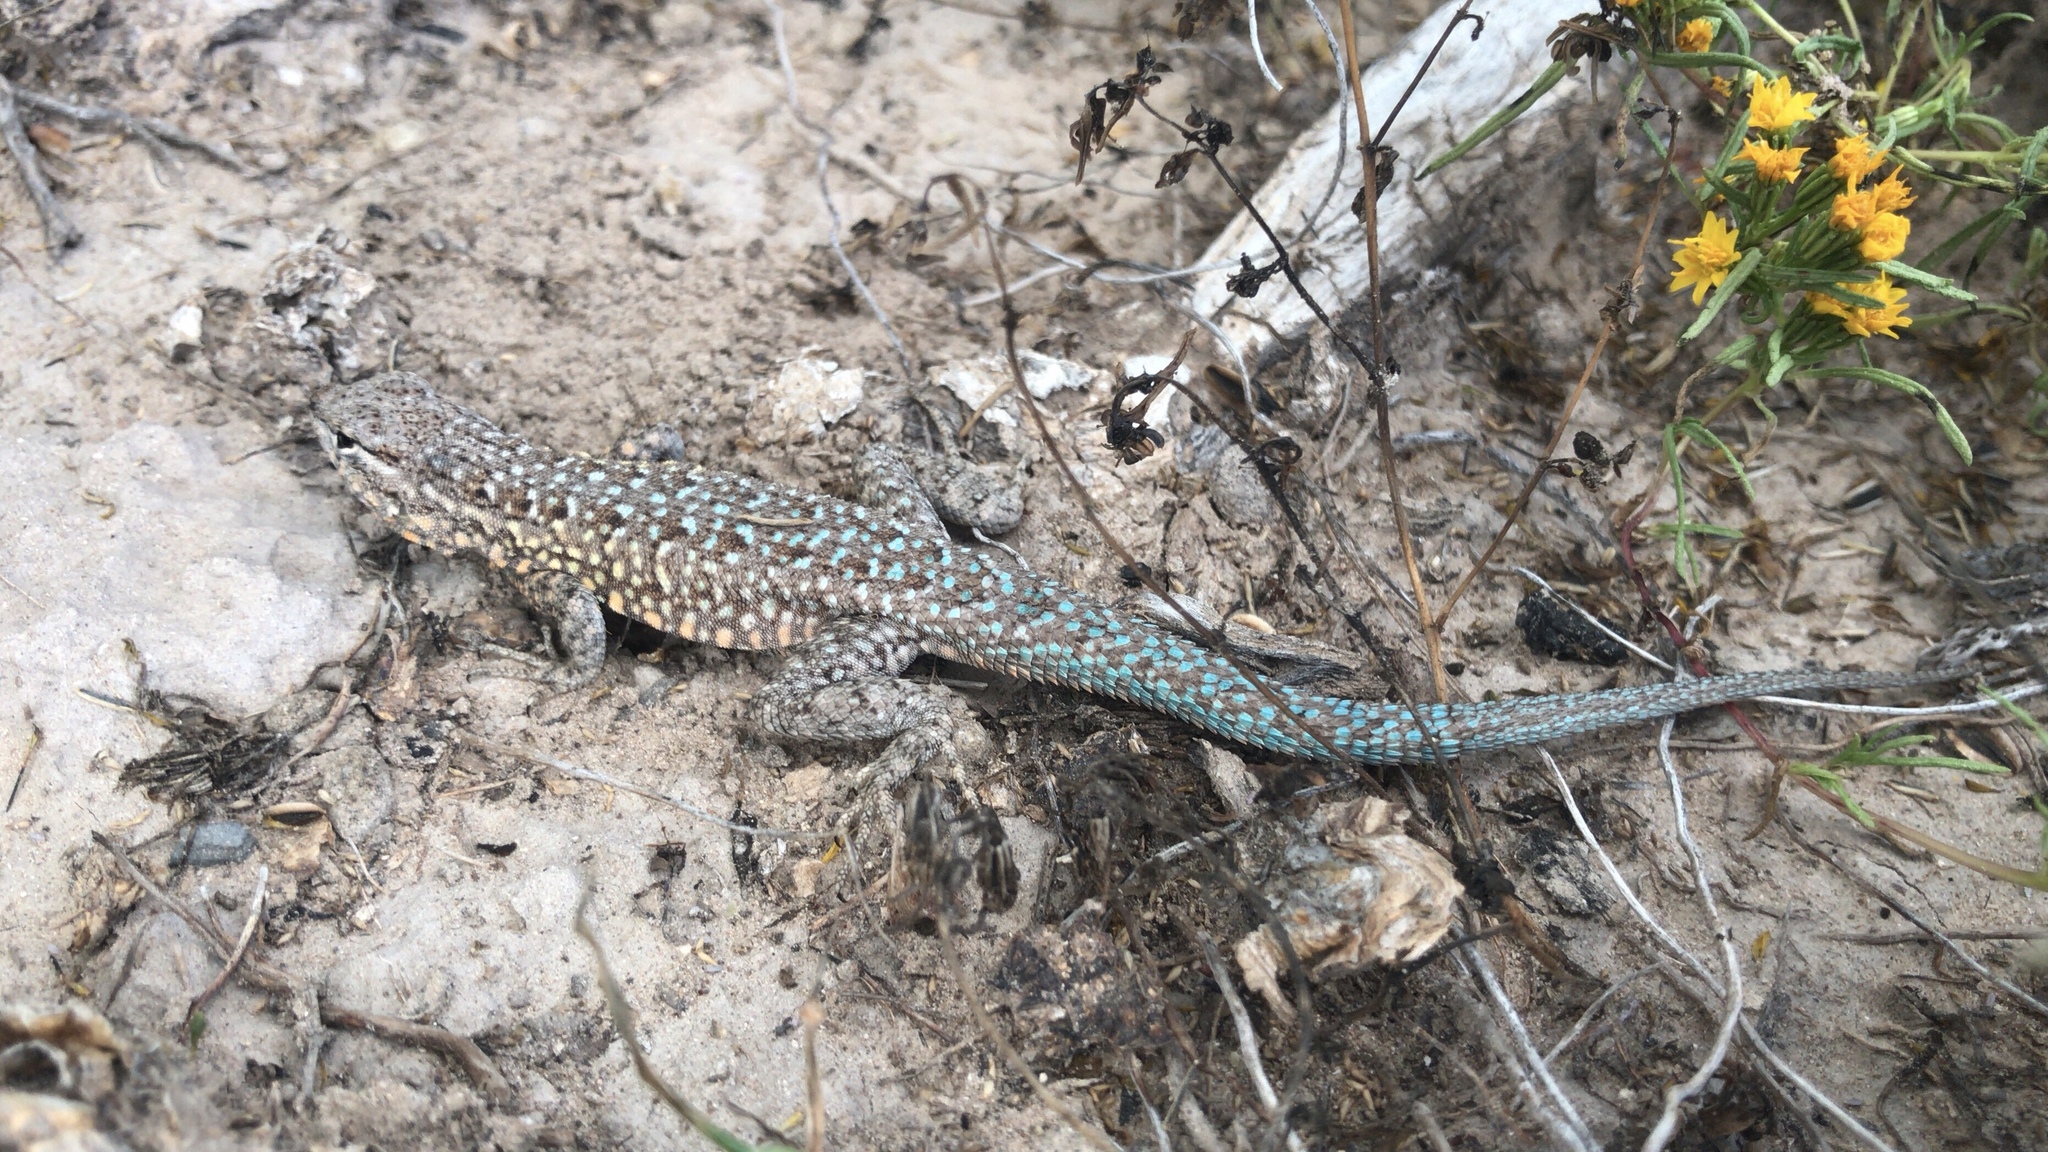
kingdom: Animalia
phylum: Chordata
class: Squamata
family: Phrynosomatidae
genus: Uta
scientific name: Uta stansburiana
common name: Side-blotched lizard
